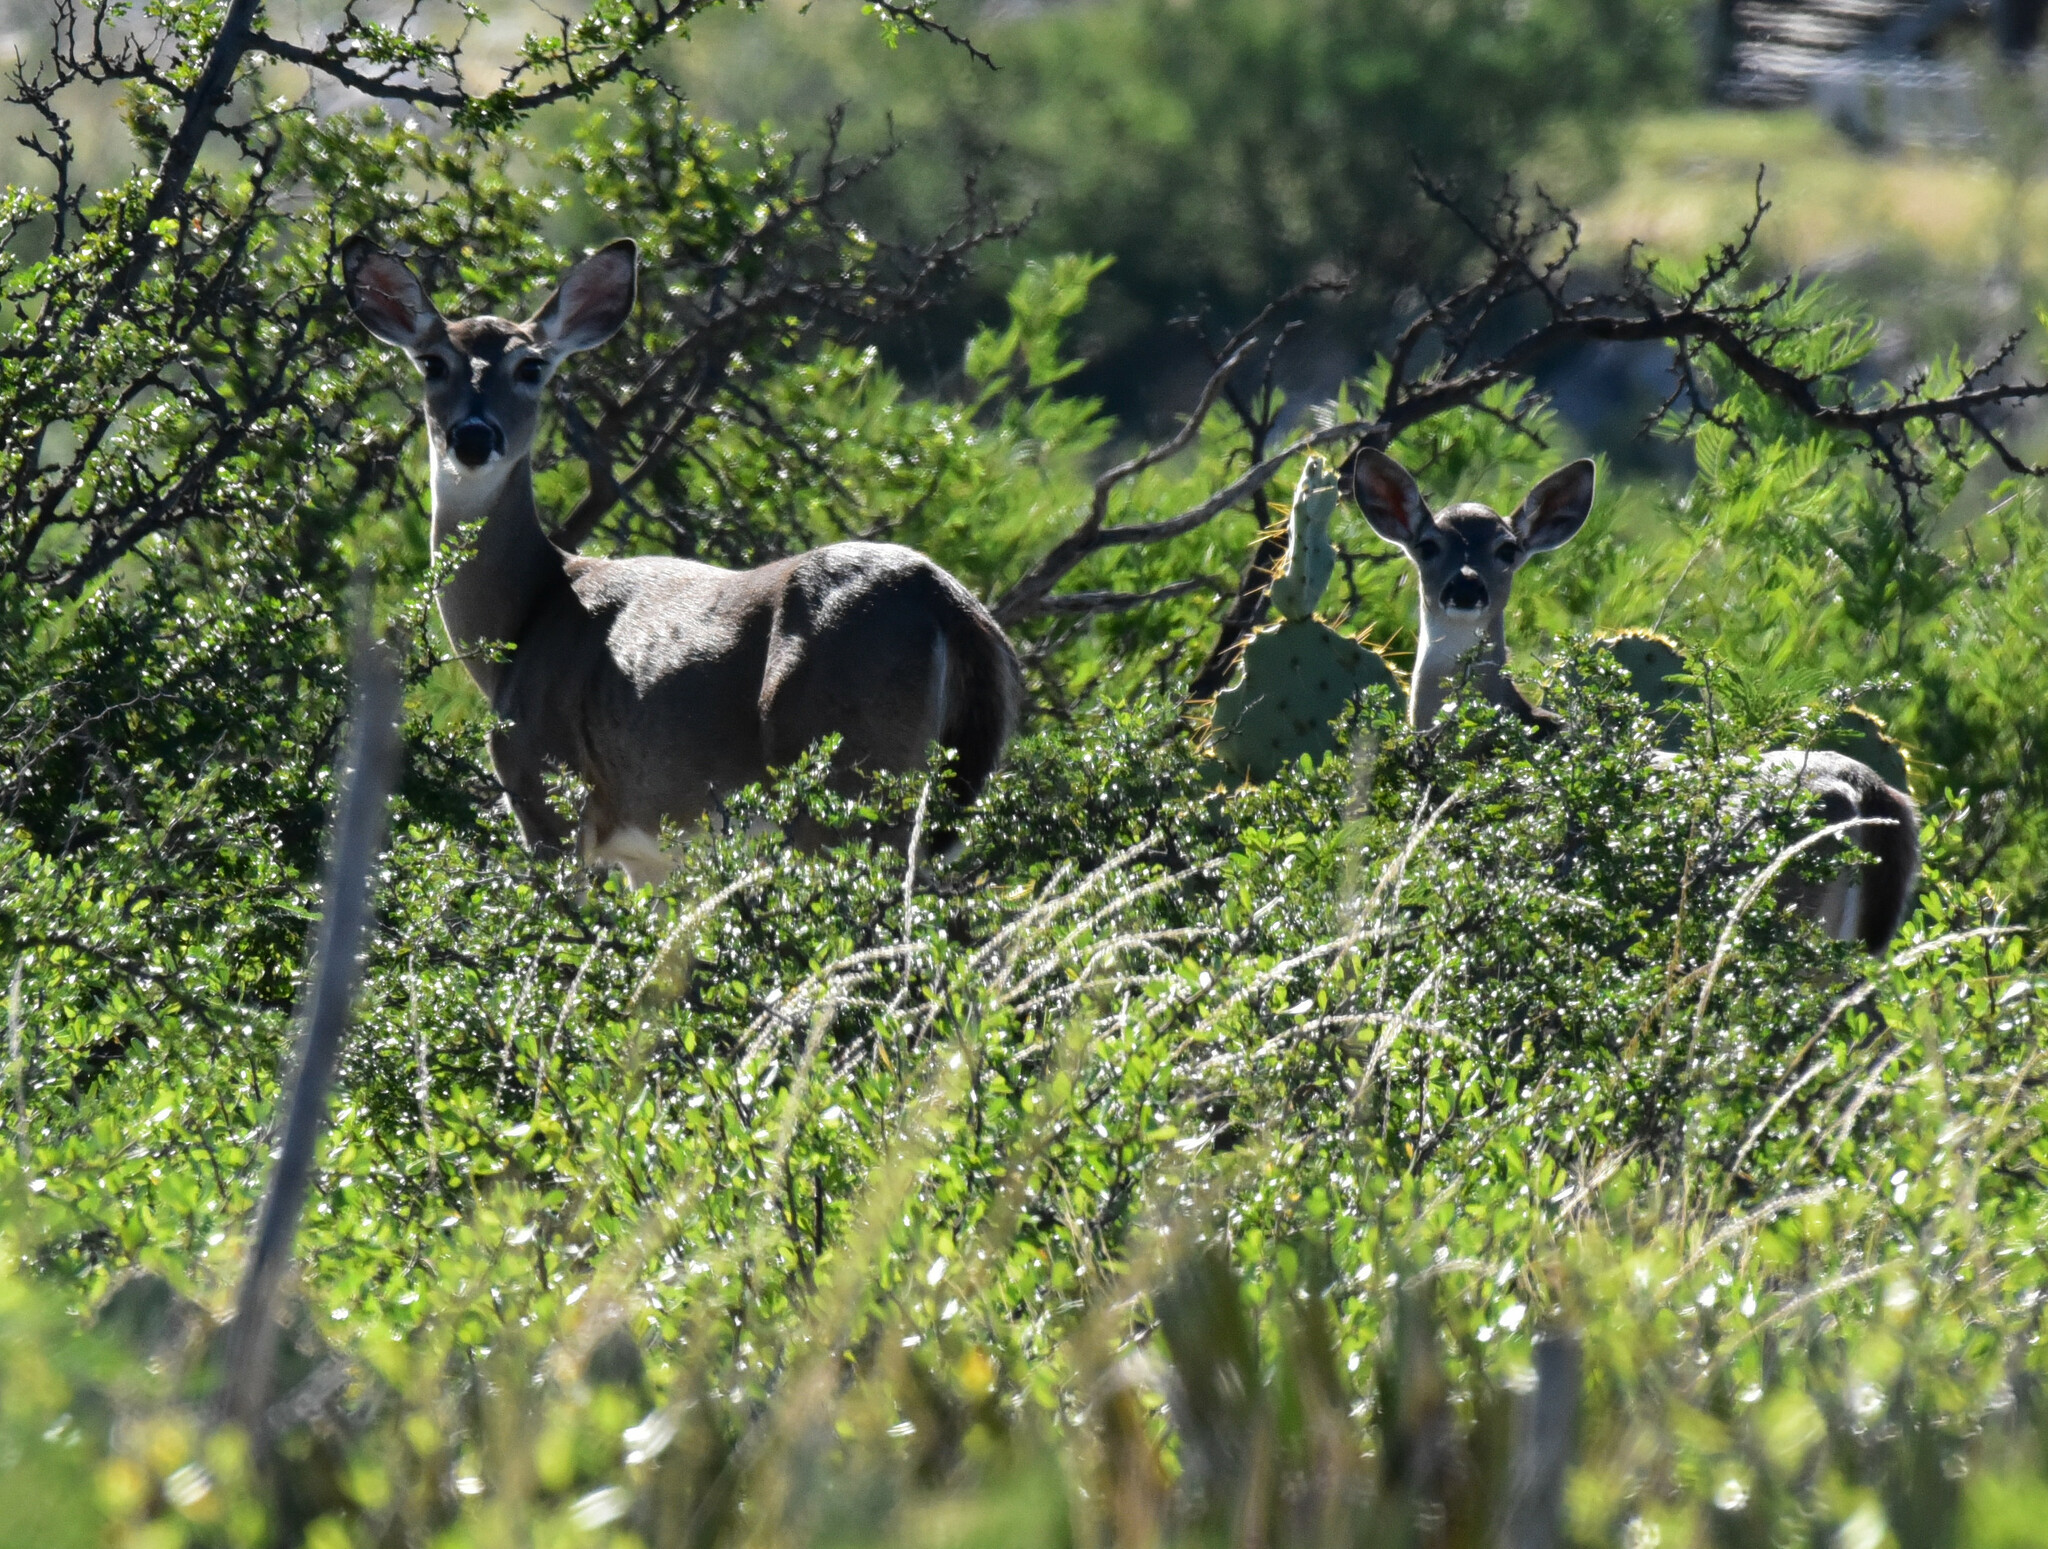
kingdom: Animalia
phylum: Chordata
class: Mammalia
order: Artiodactyla
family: Cervidae
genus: Odocoileus
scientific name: Odocoileus virginianus
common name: White-tailed deer
